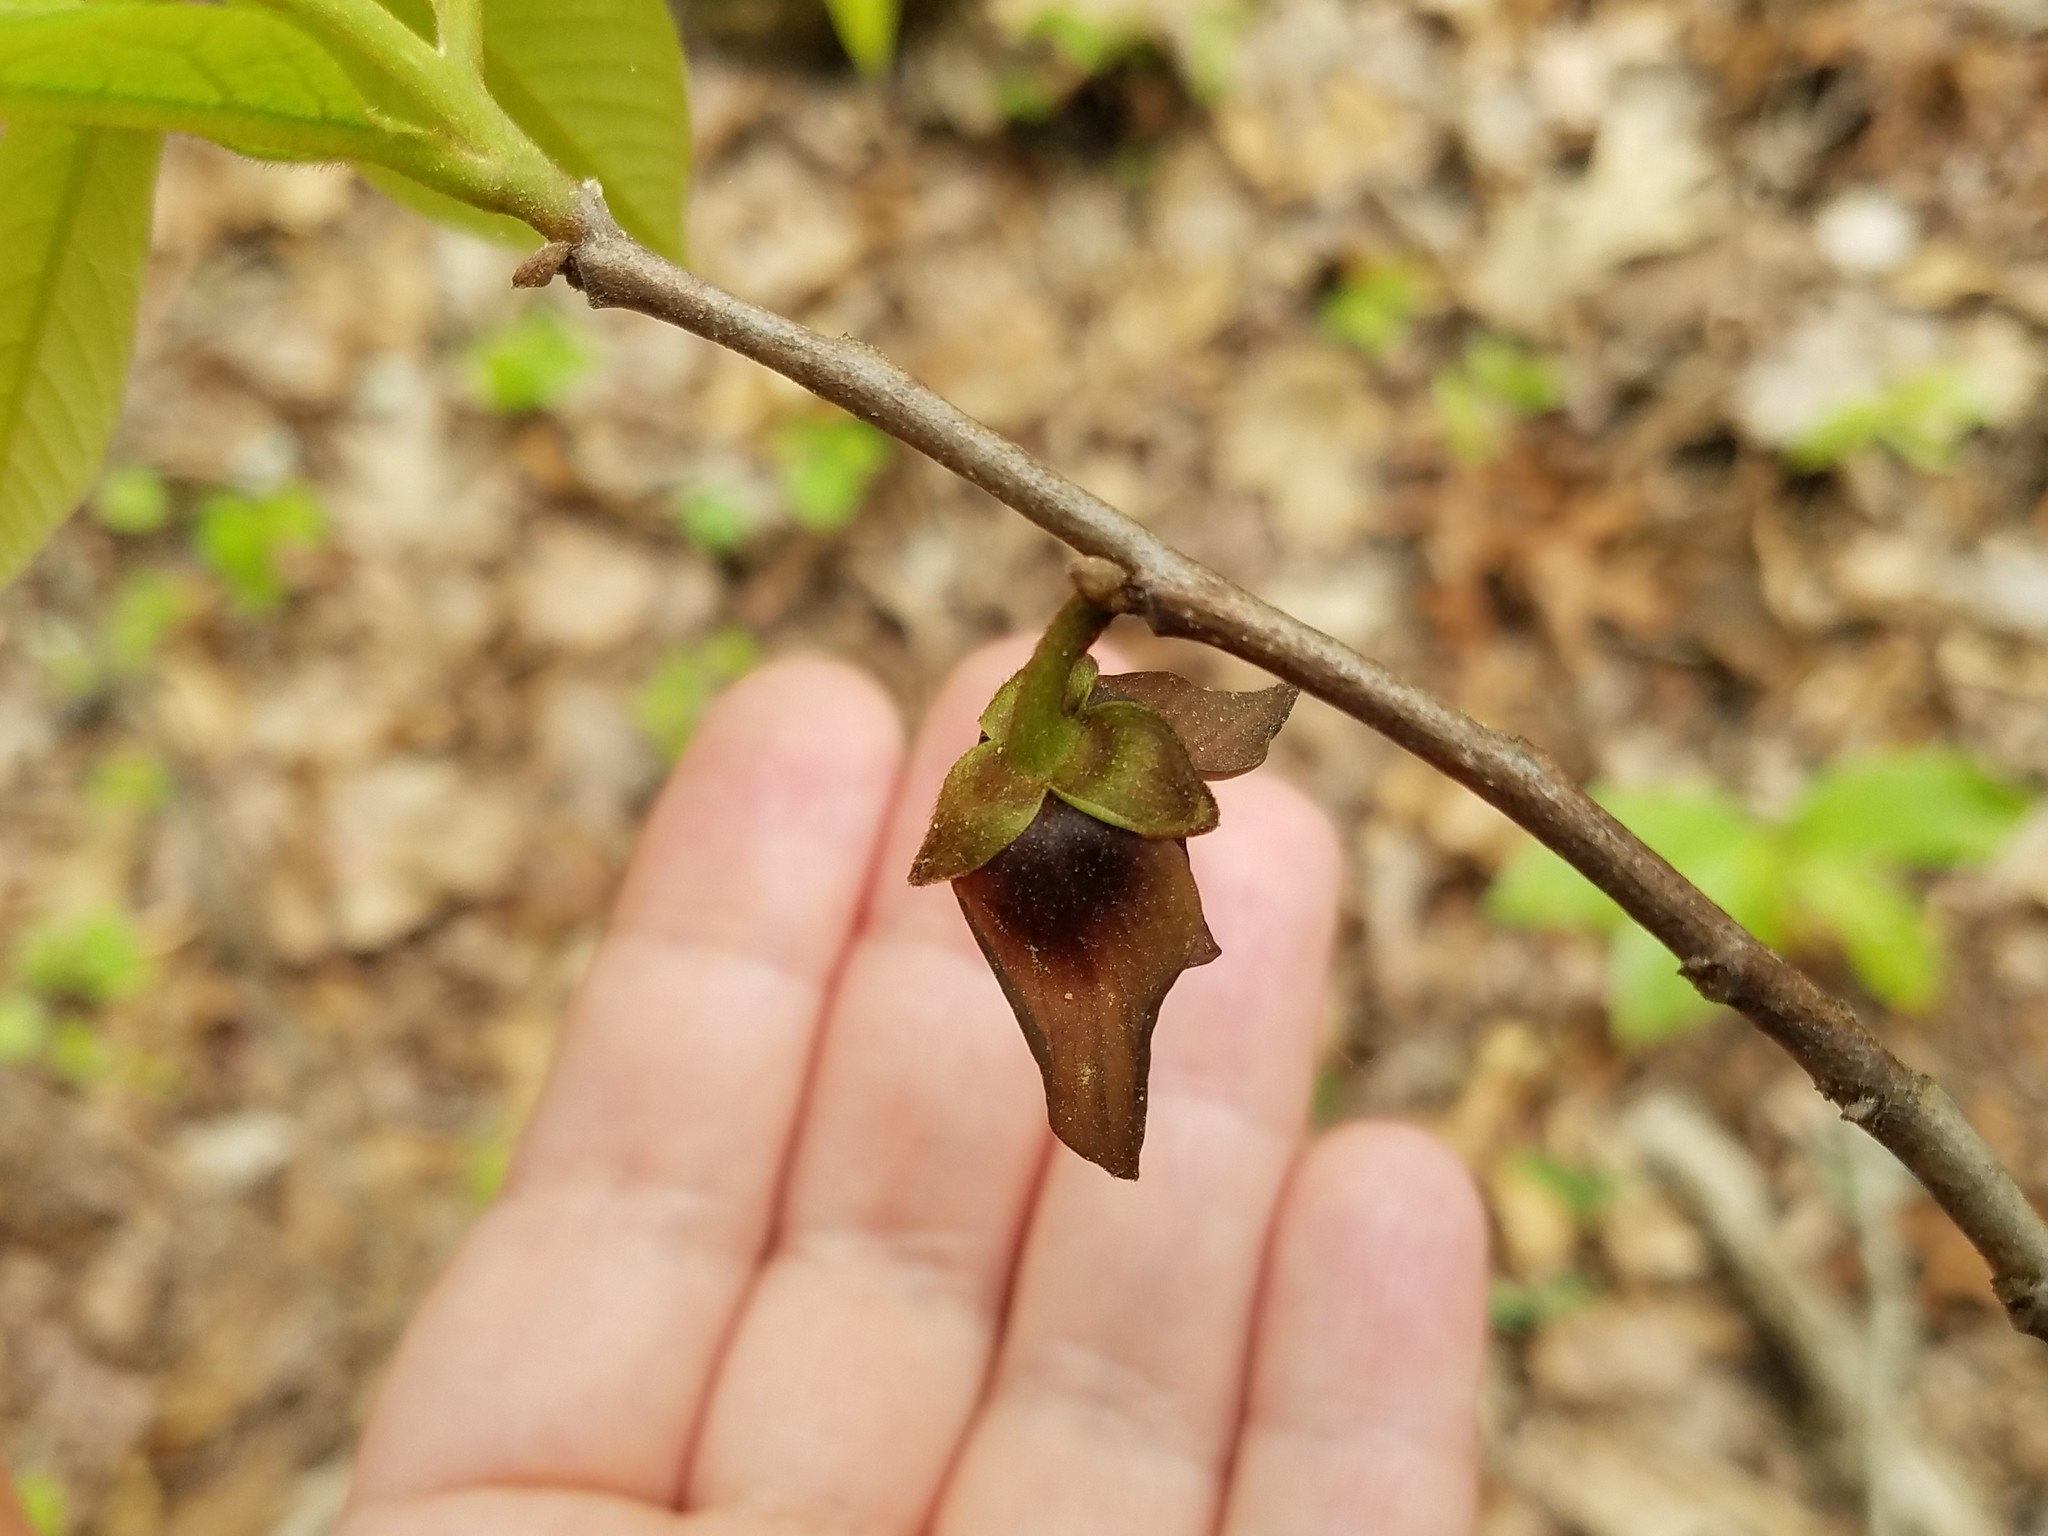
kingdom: Plantae
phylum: Tracheophyta
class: Magnoliopsida
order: Magnoliales
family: Annonaceae
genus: Asimina
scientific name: Asimina triloba
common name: Dog-banana
